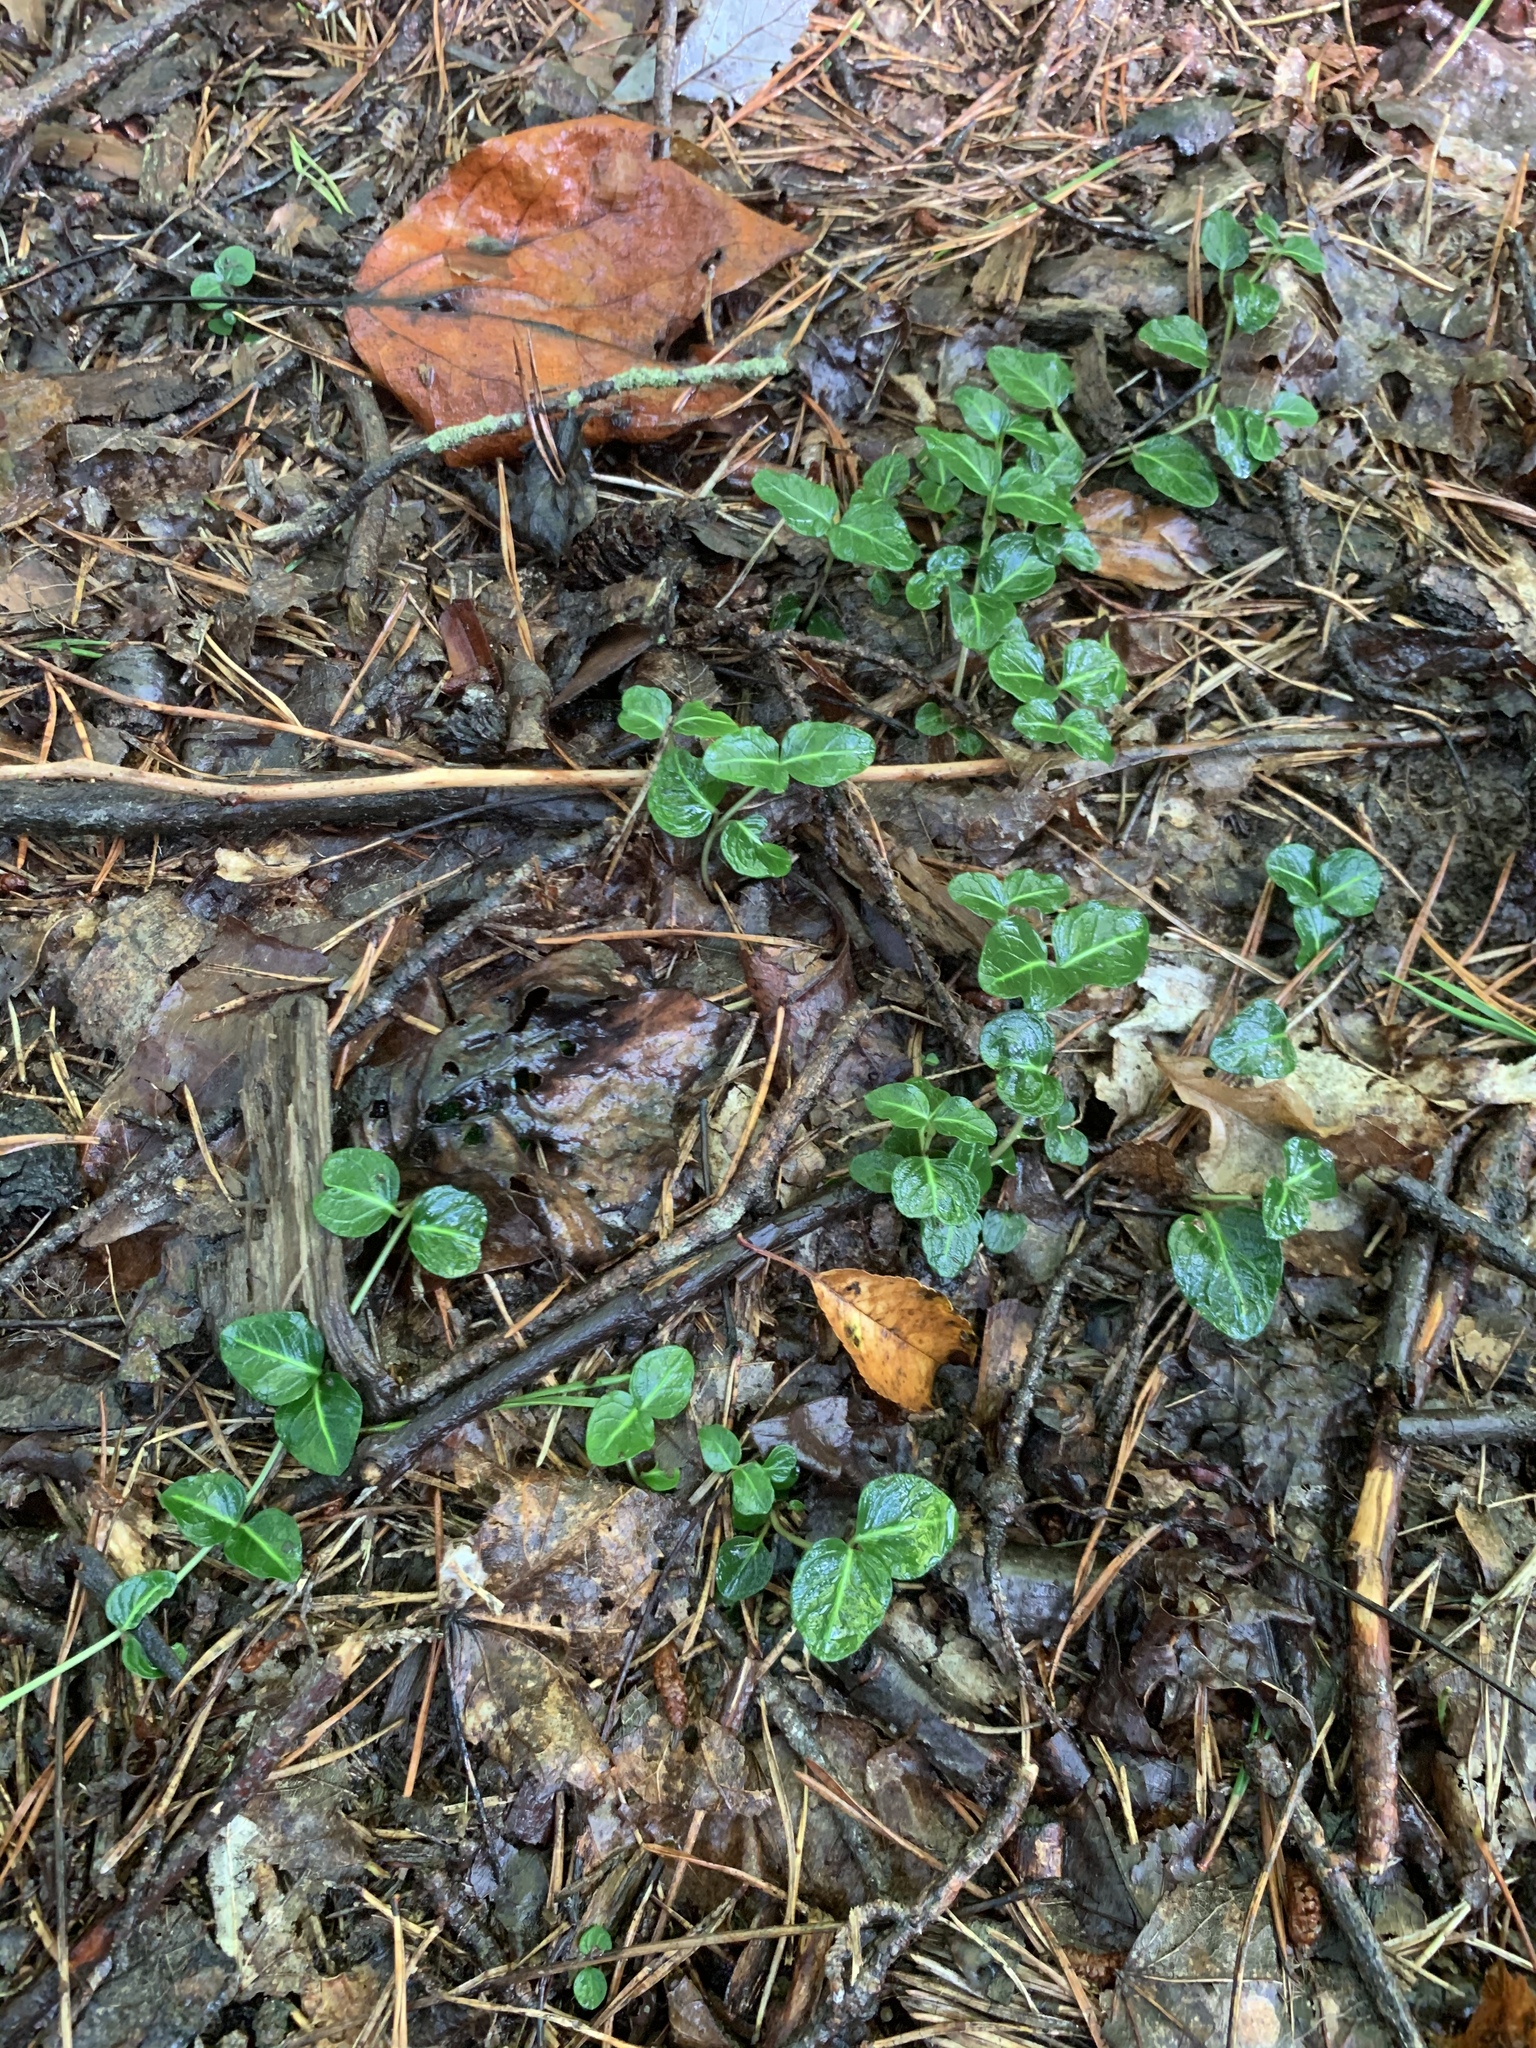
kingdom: Plantae
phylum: Tracheophyta
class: Magnoliopsida
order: Gentianales
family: Rubiaceae
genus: Mitchella
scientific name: Mitchella repens
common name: Partridge-berry
